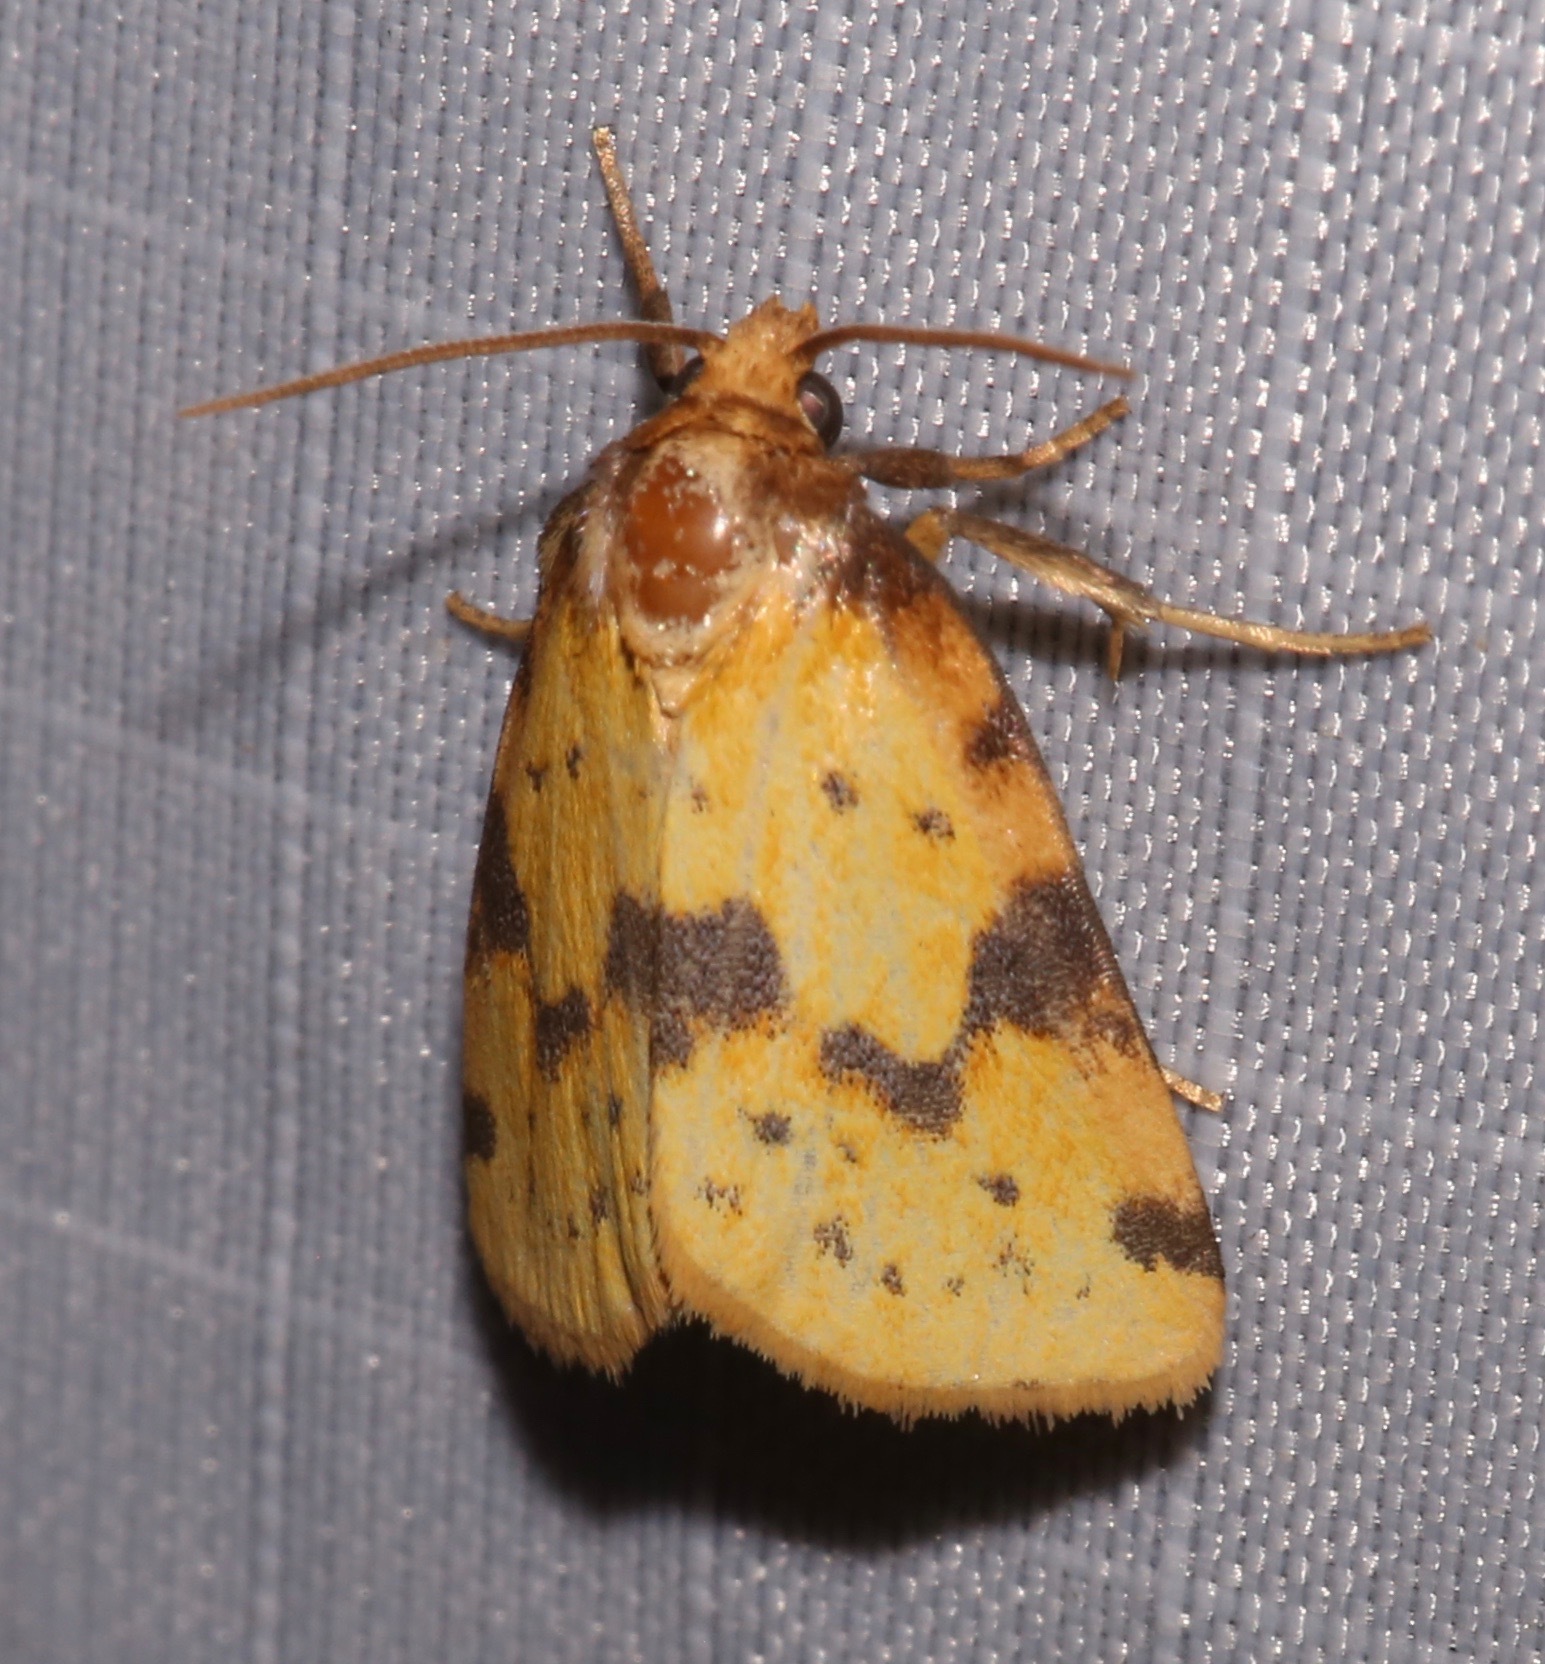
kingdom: Animalia
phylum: Arthropoda
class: Insecta
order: Lepidoptera
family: Noctuidae
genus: Azenia
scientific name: Azenia obtusa
